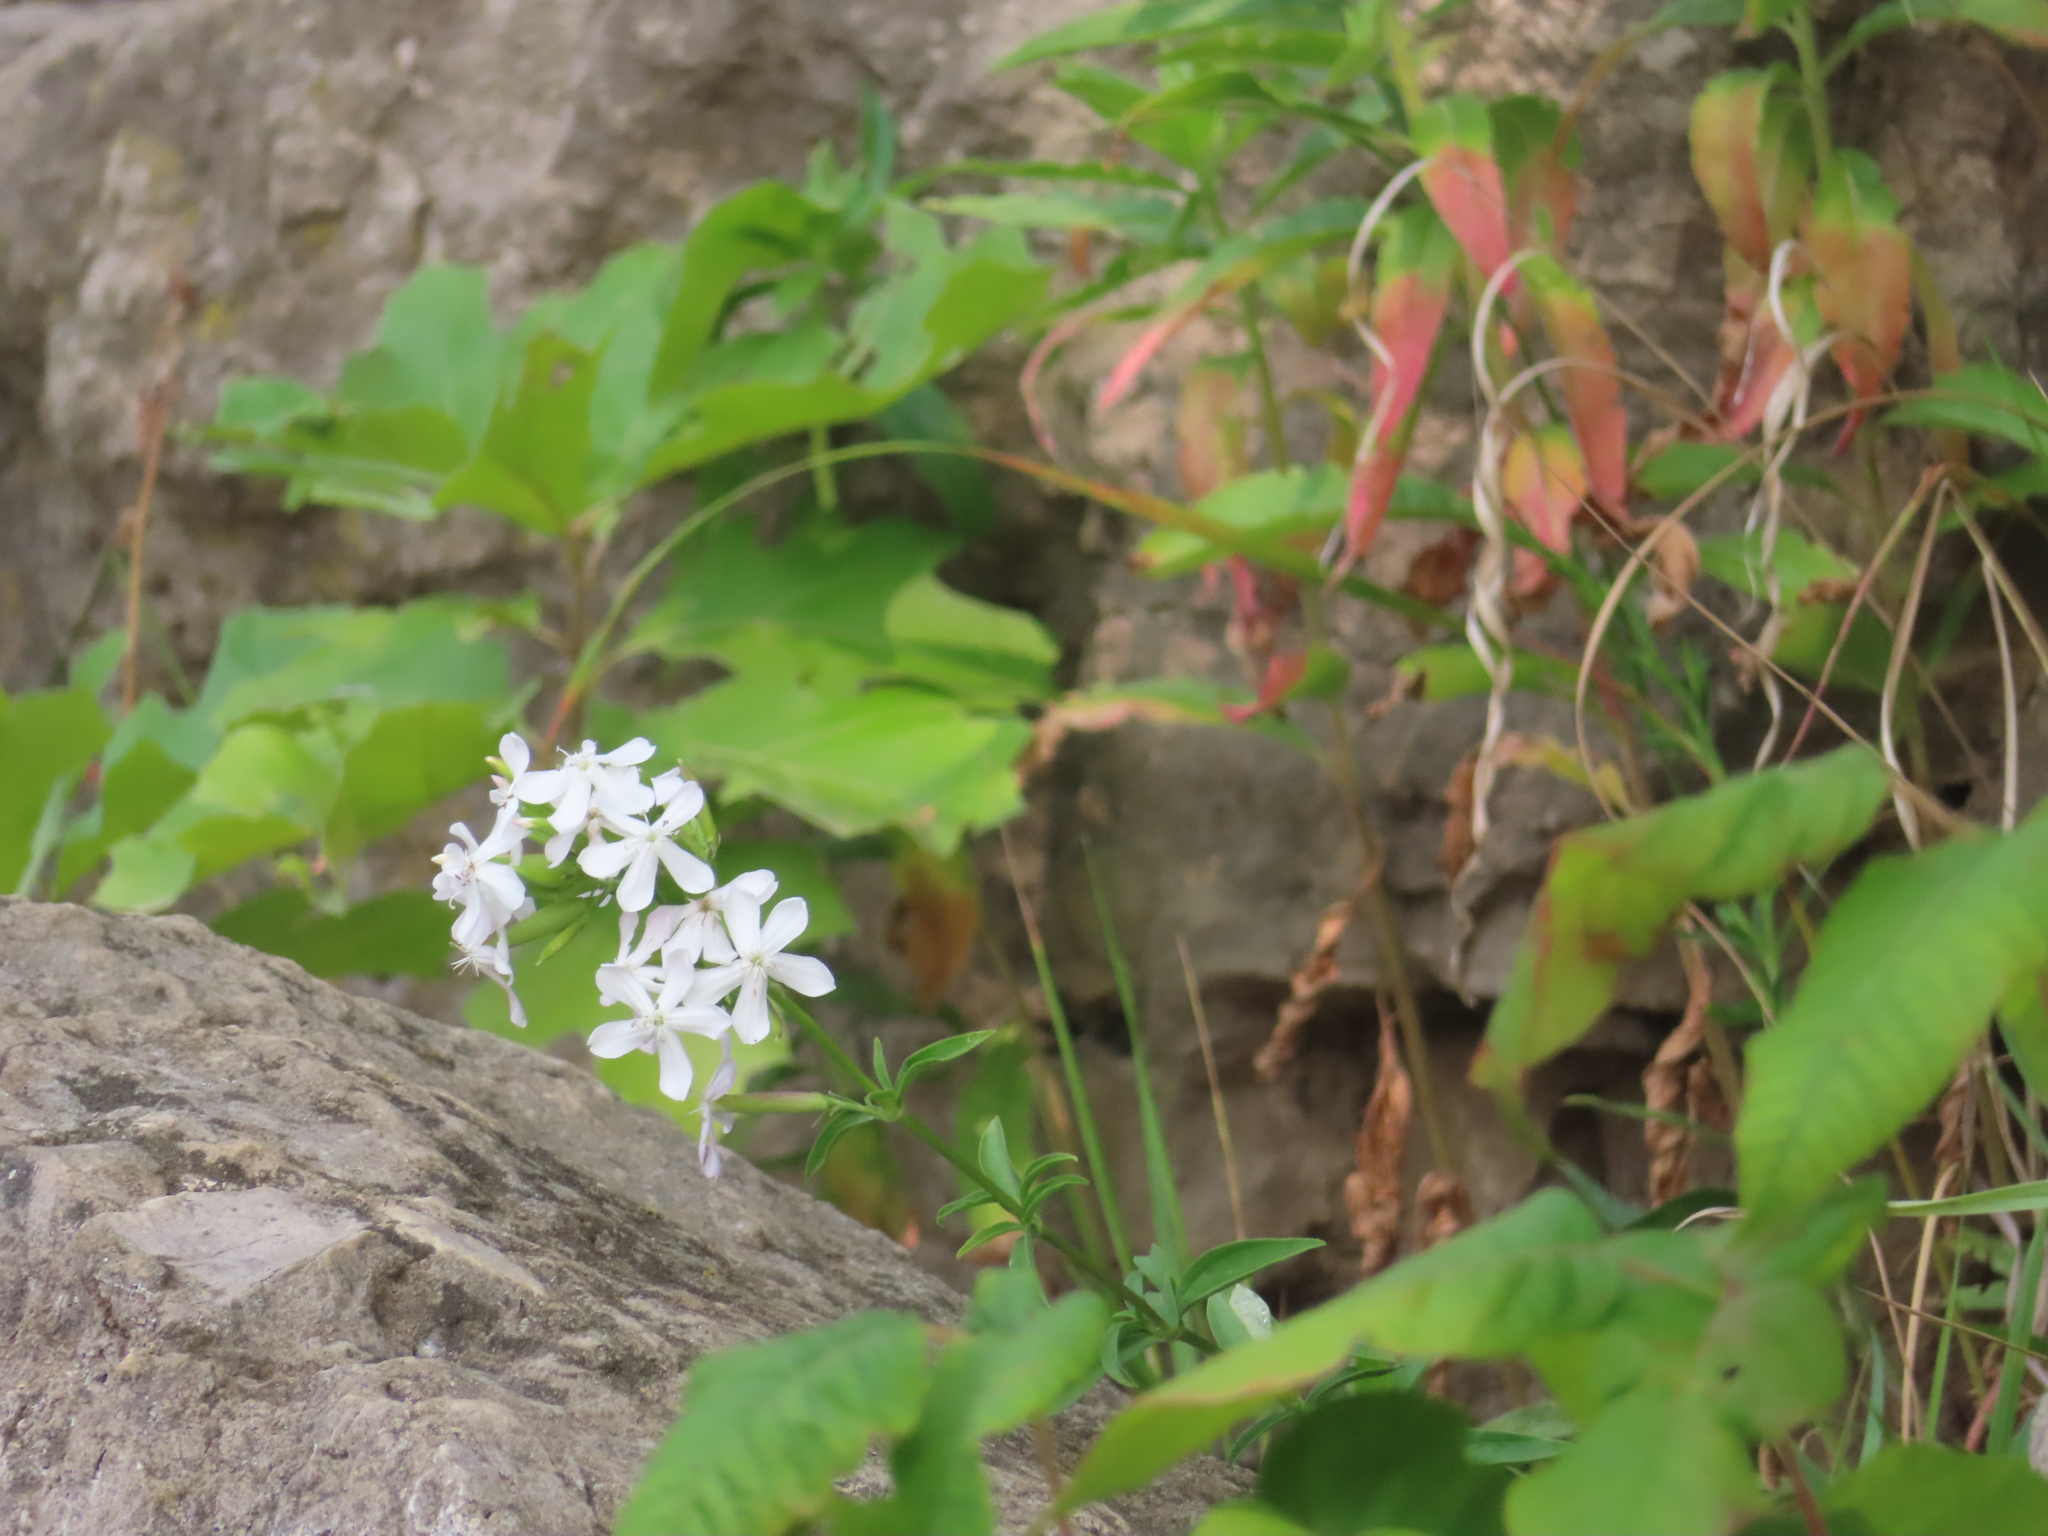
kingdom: Plantae
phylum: Tracheophyta
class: Magnoliopsida
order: Caryophyllales
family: Caryophyllaceae
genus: Saponaria
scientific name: Saponaria officinalis
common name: Soapwort
